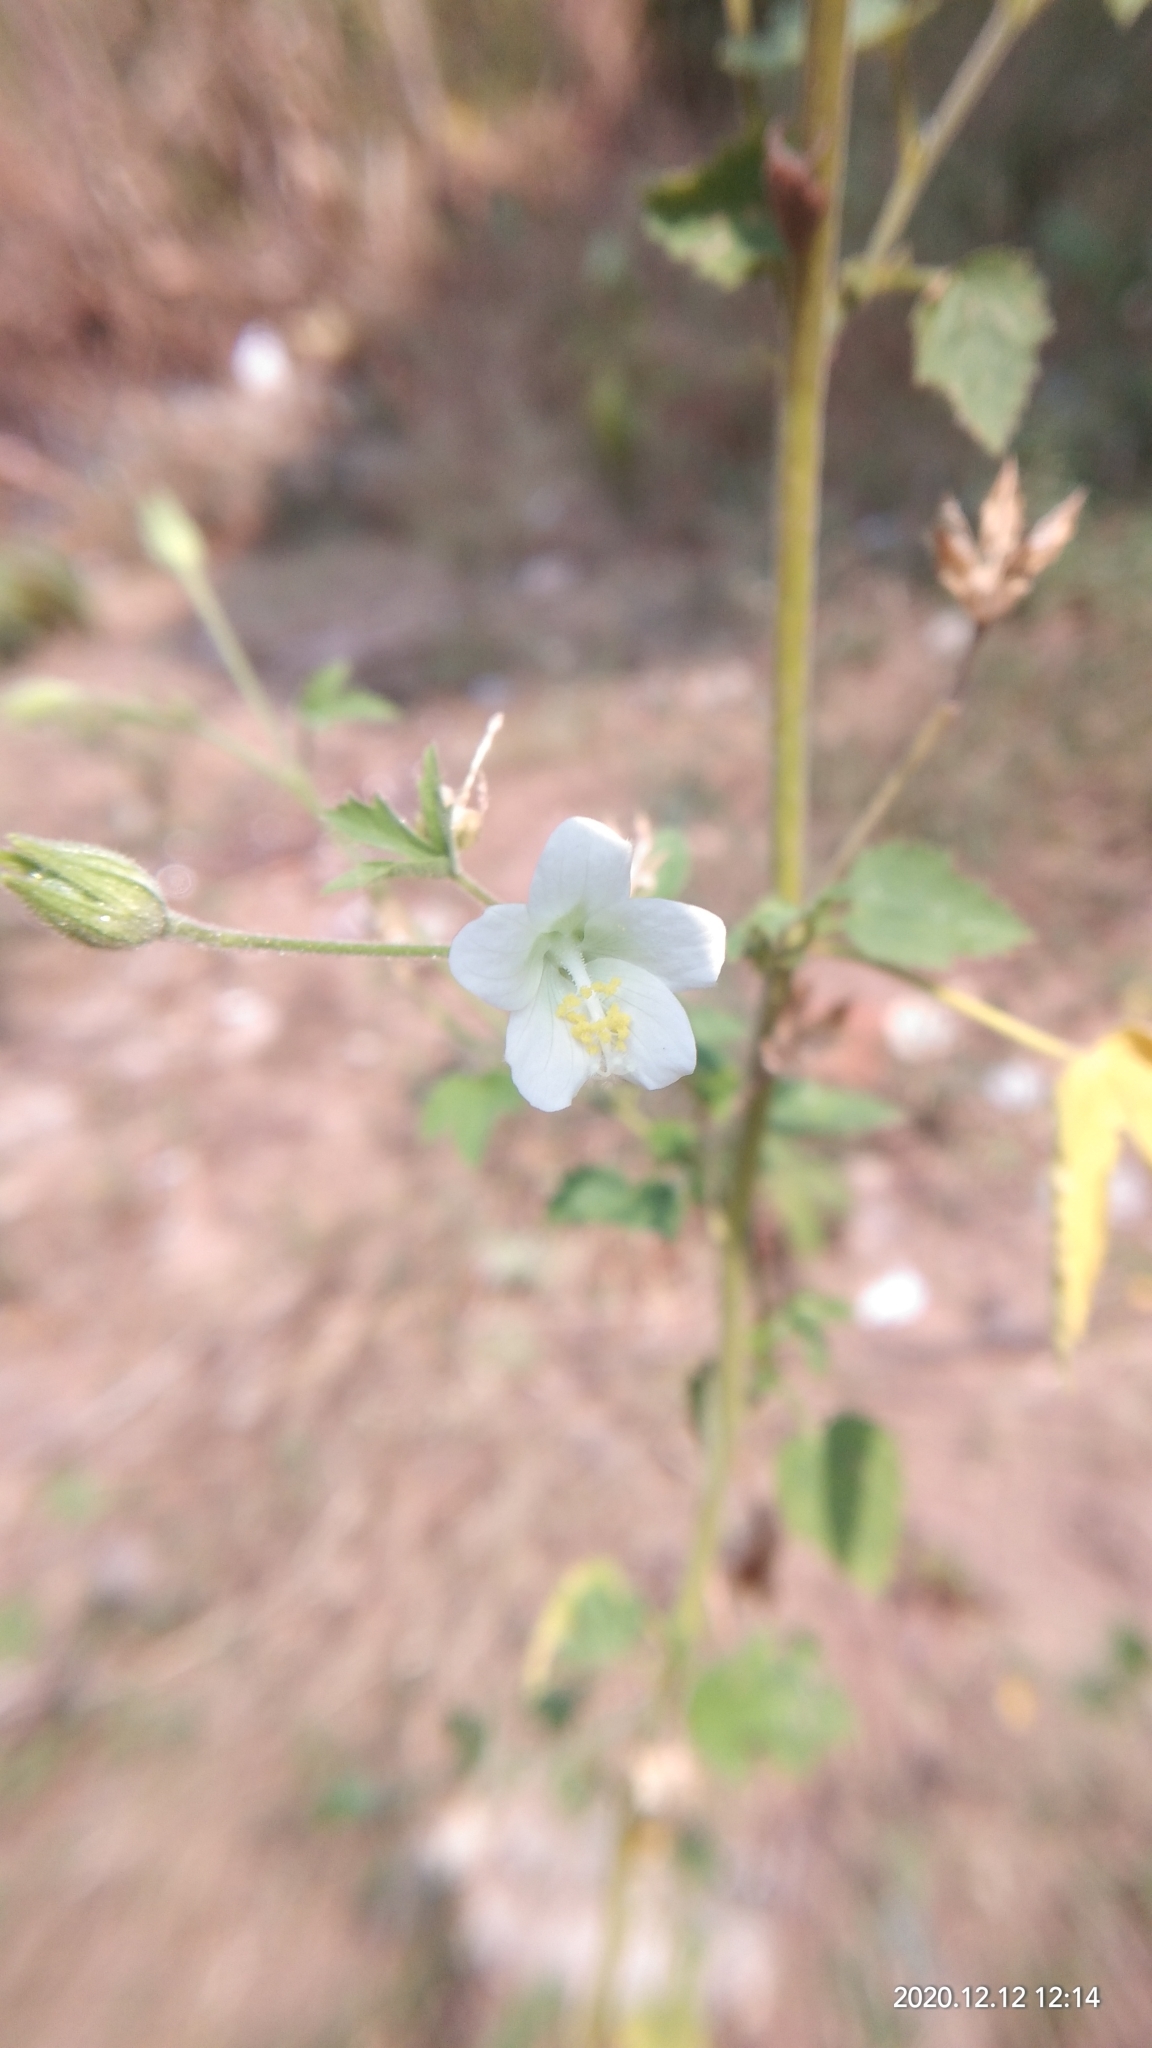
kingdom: Plantae
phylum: Tracheophyta
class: Magnoliopsida
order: Malvales
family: Malvaceae
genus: Hibiscus
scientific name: Hibiscus lobatus
